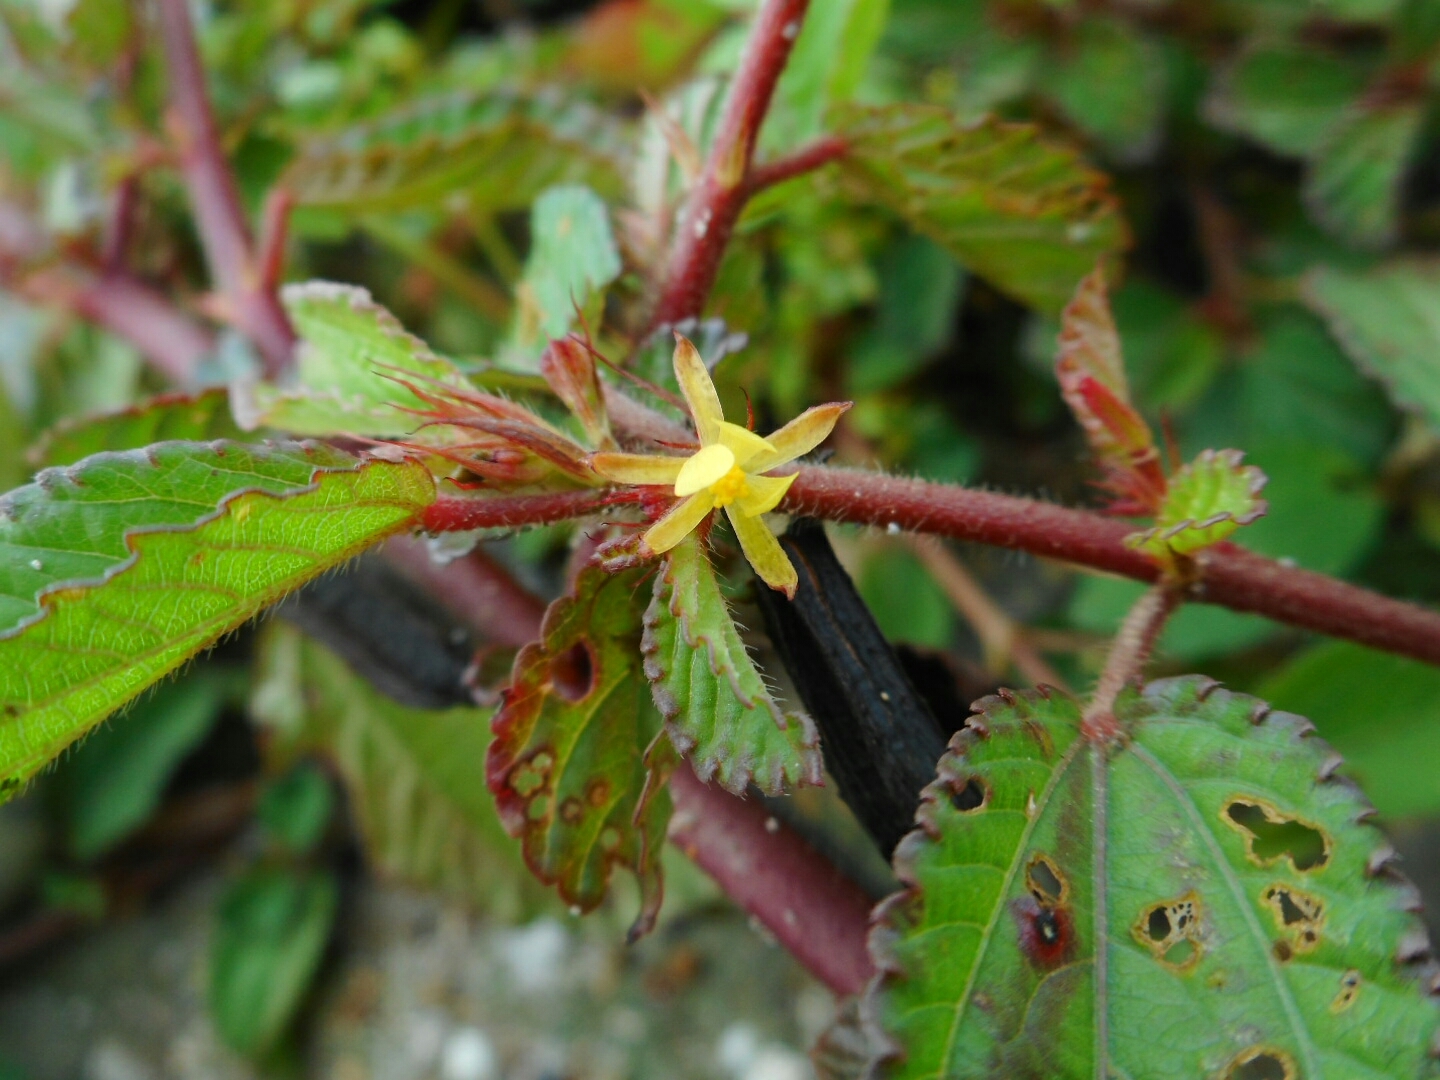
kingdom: Plantae
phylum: Tracheophyta
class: Magnoliopsida
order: Malvales
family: Malvaceae
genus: Corchorus
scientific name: Corchorus aestuans
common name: Jute
